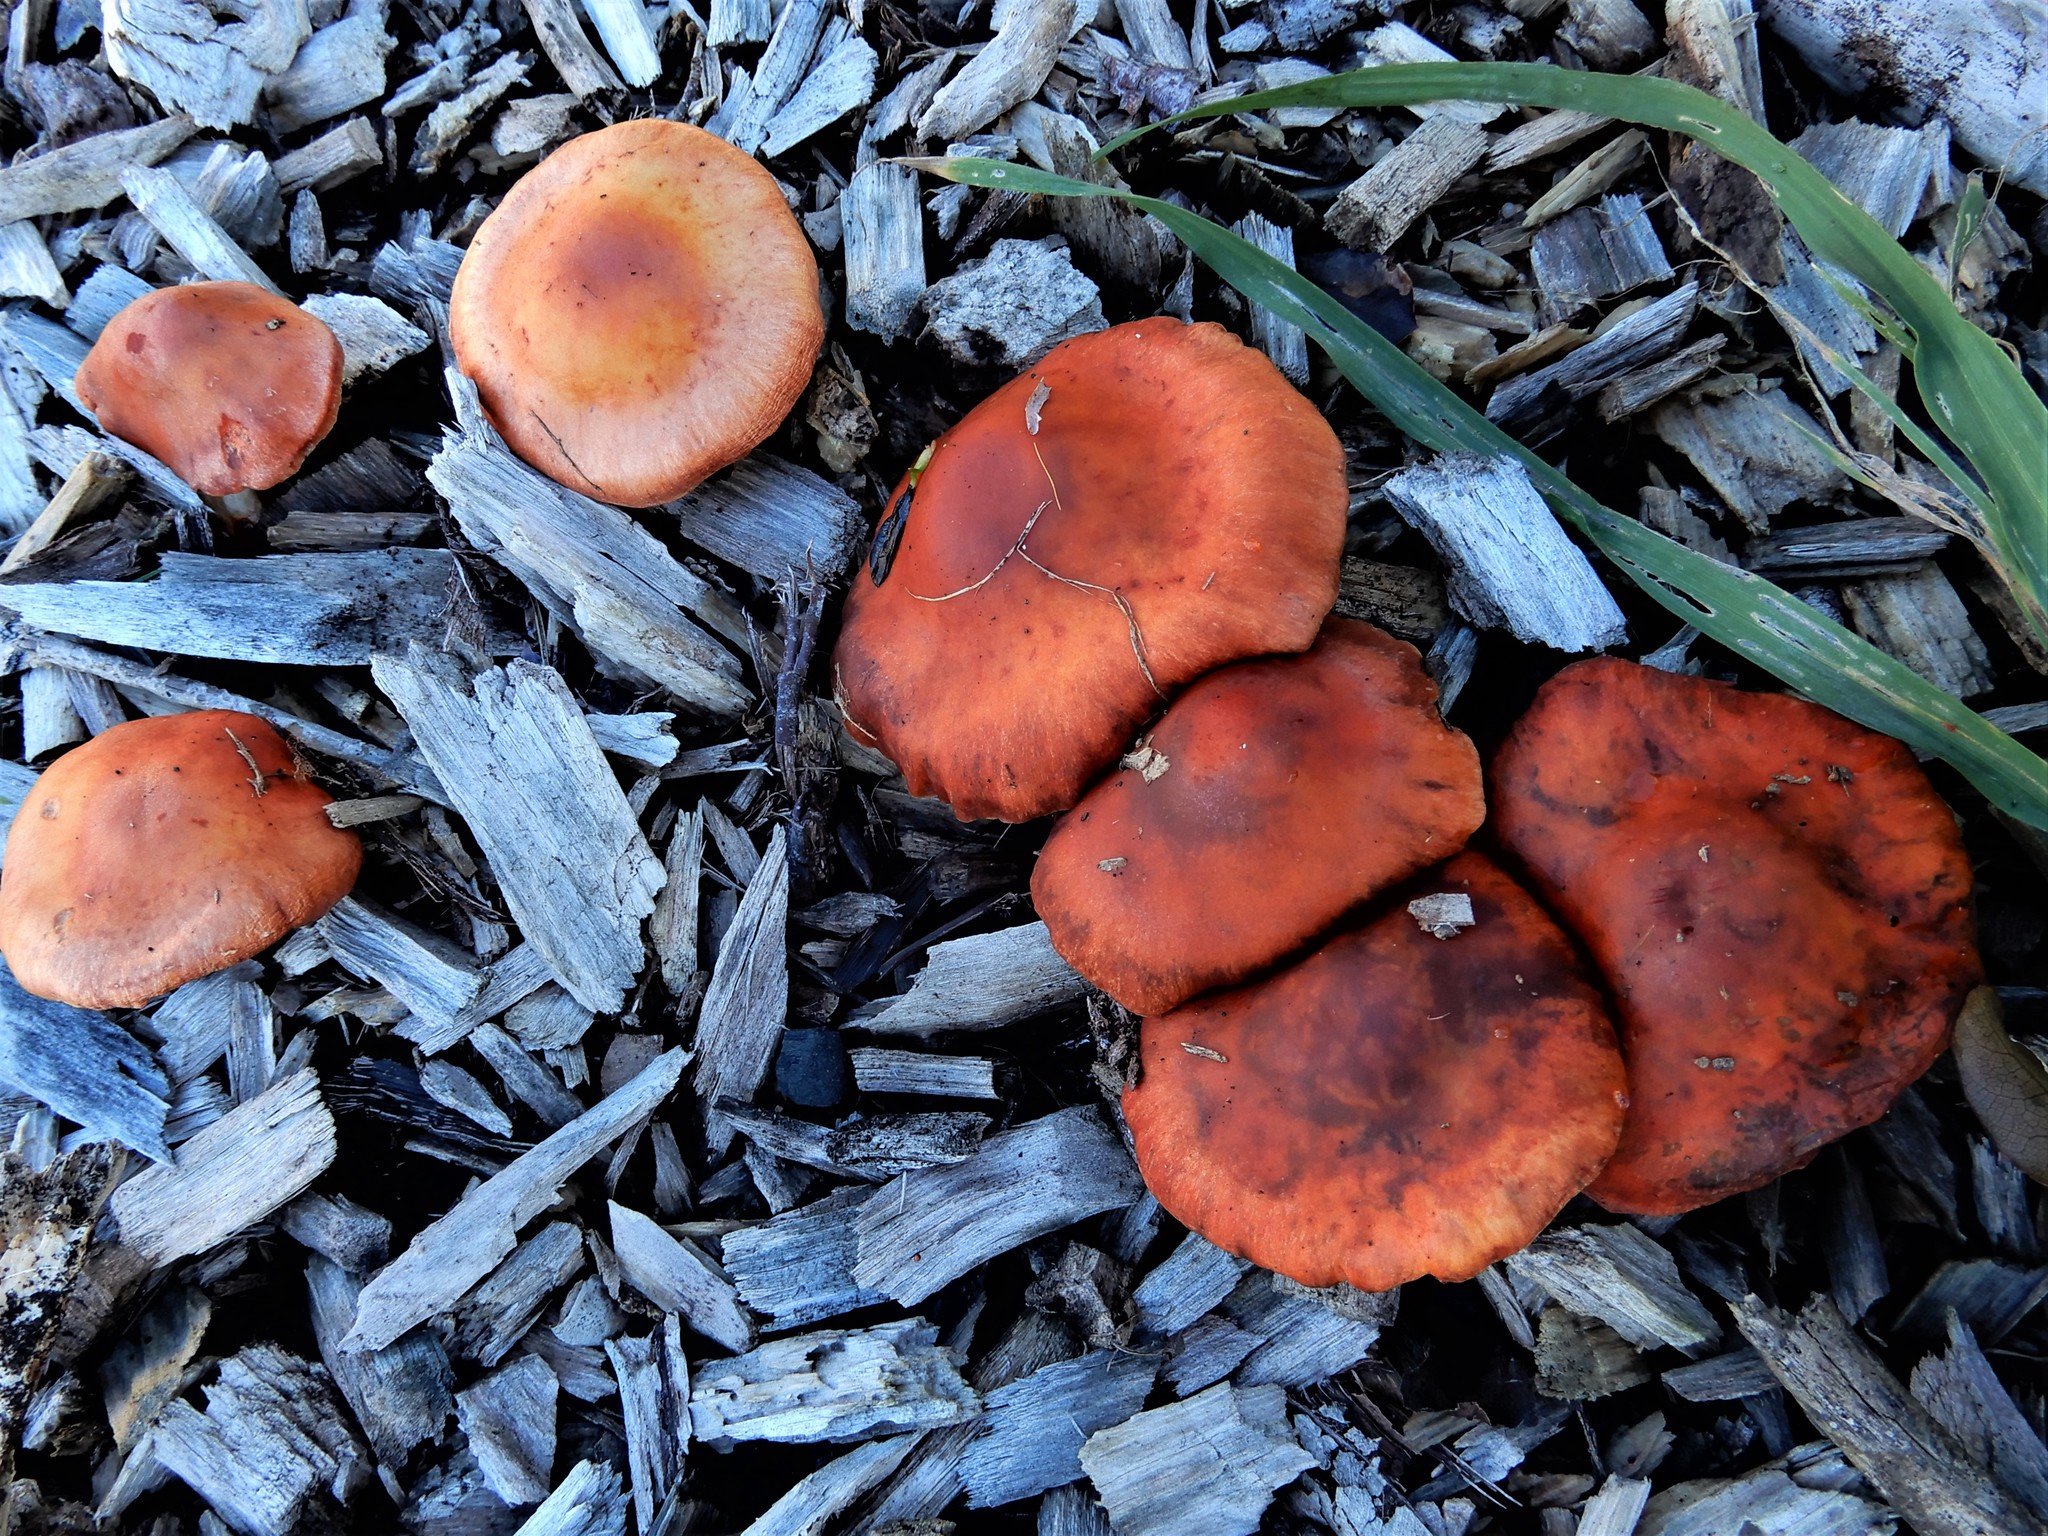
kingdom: Fungi
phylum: Basidiomycota
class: Agaricomycetes
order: Agaricales
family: Strophariaceae
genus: Leratiomyces
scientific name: Leratiomyces ceres
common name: Redlead roundhead
